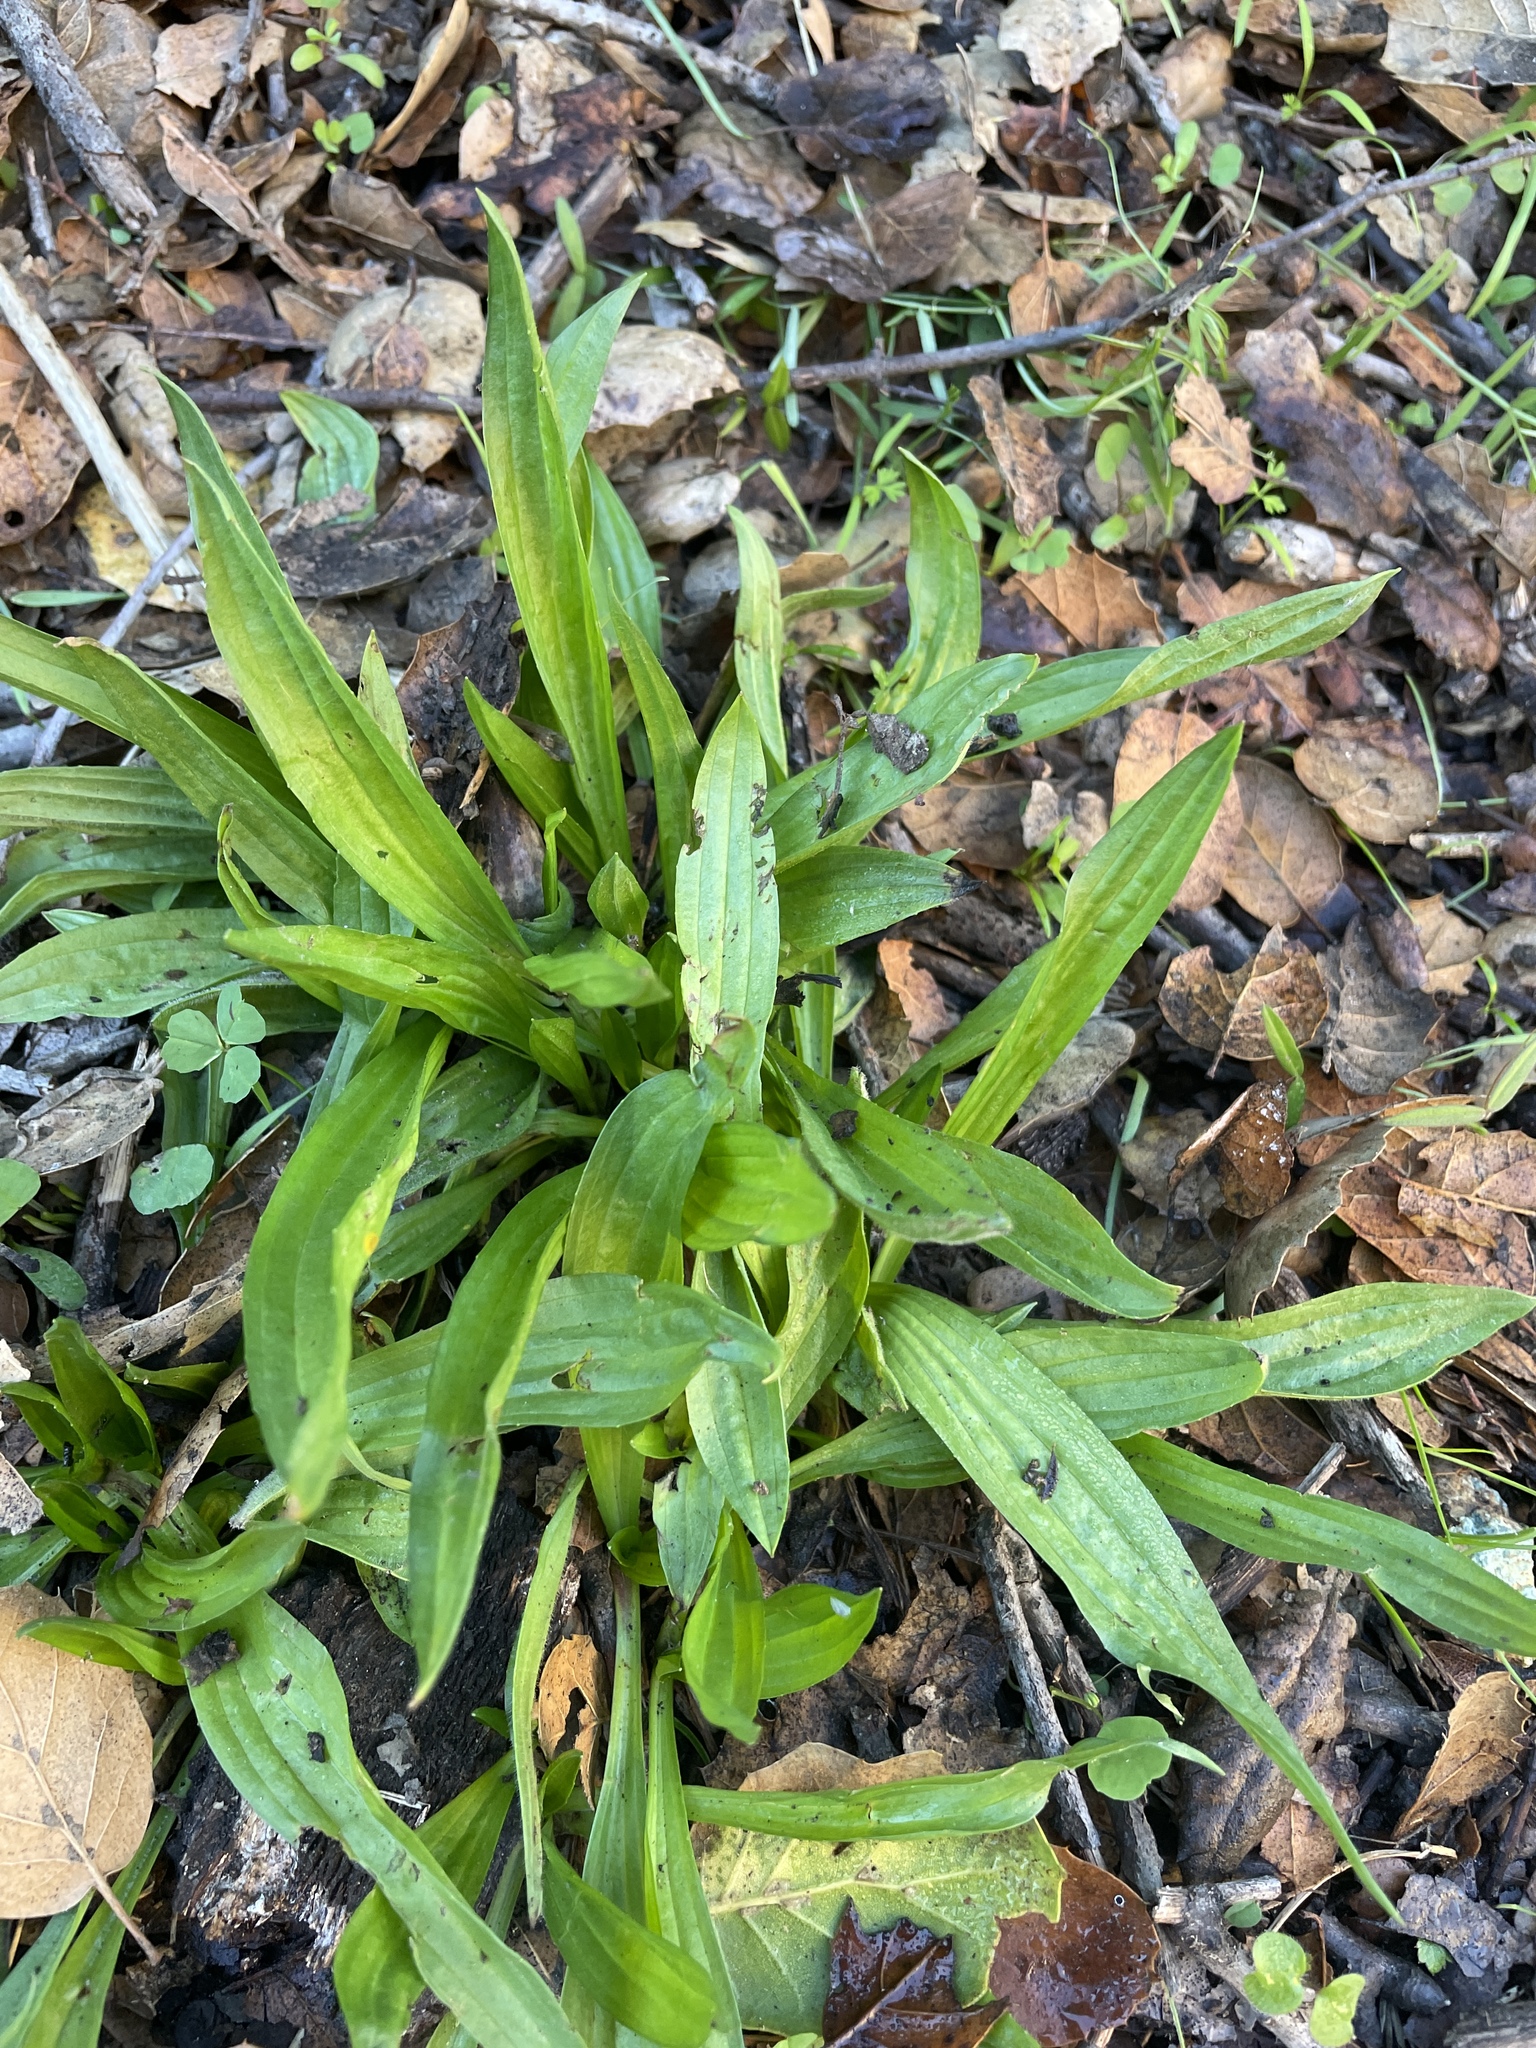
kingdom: Plantae
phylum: Tracheophyta
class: Magnoliopsida
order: Lamiales
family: Plantaginaceae
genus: Plantago
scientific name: Plantago lanceolata
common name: Ribwort plantain
